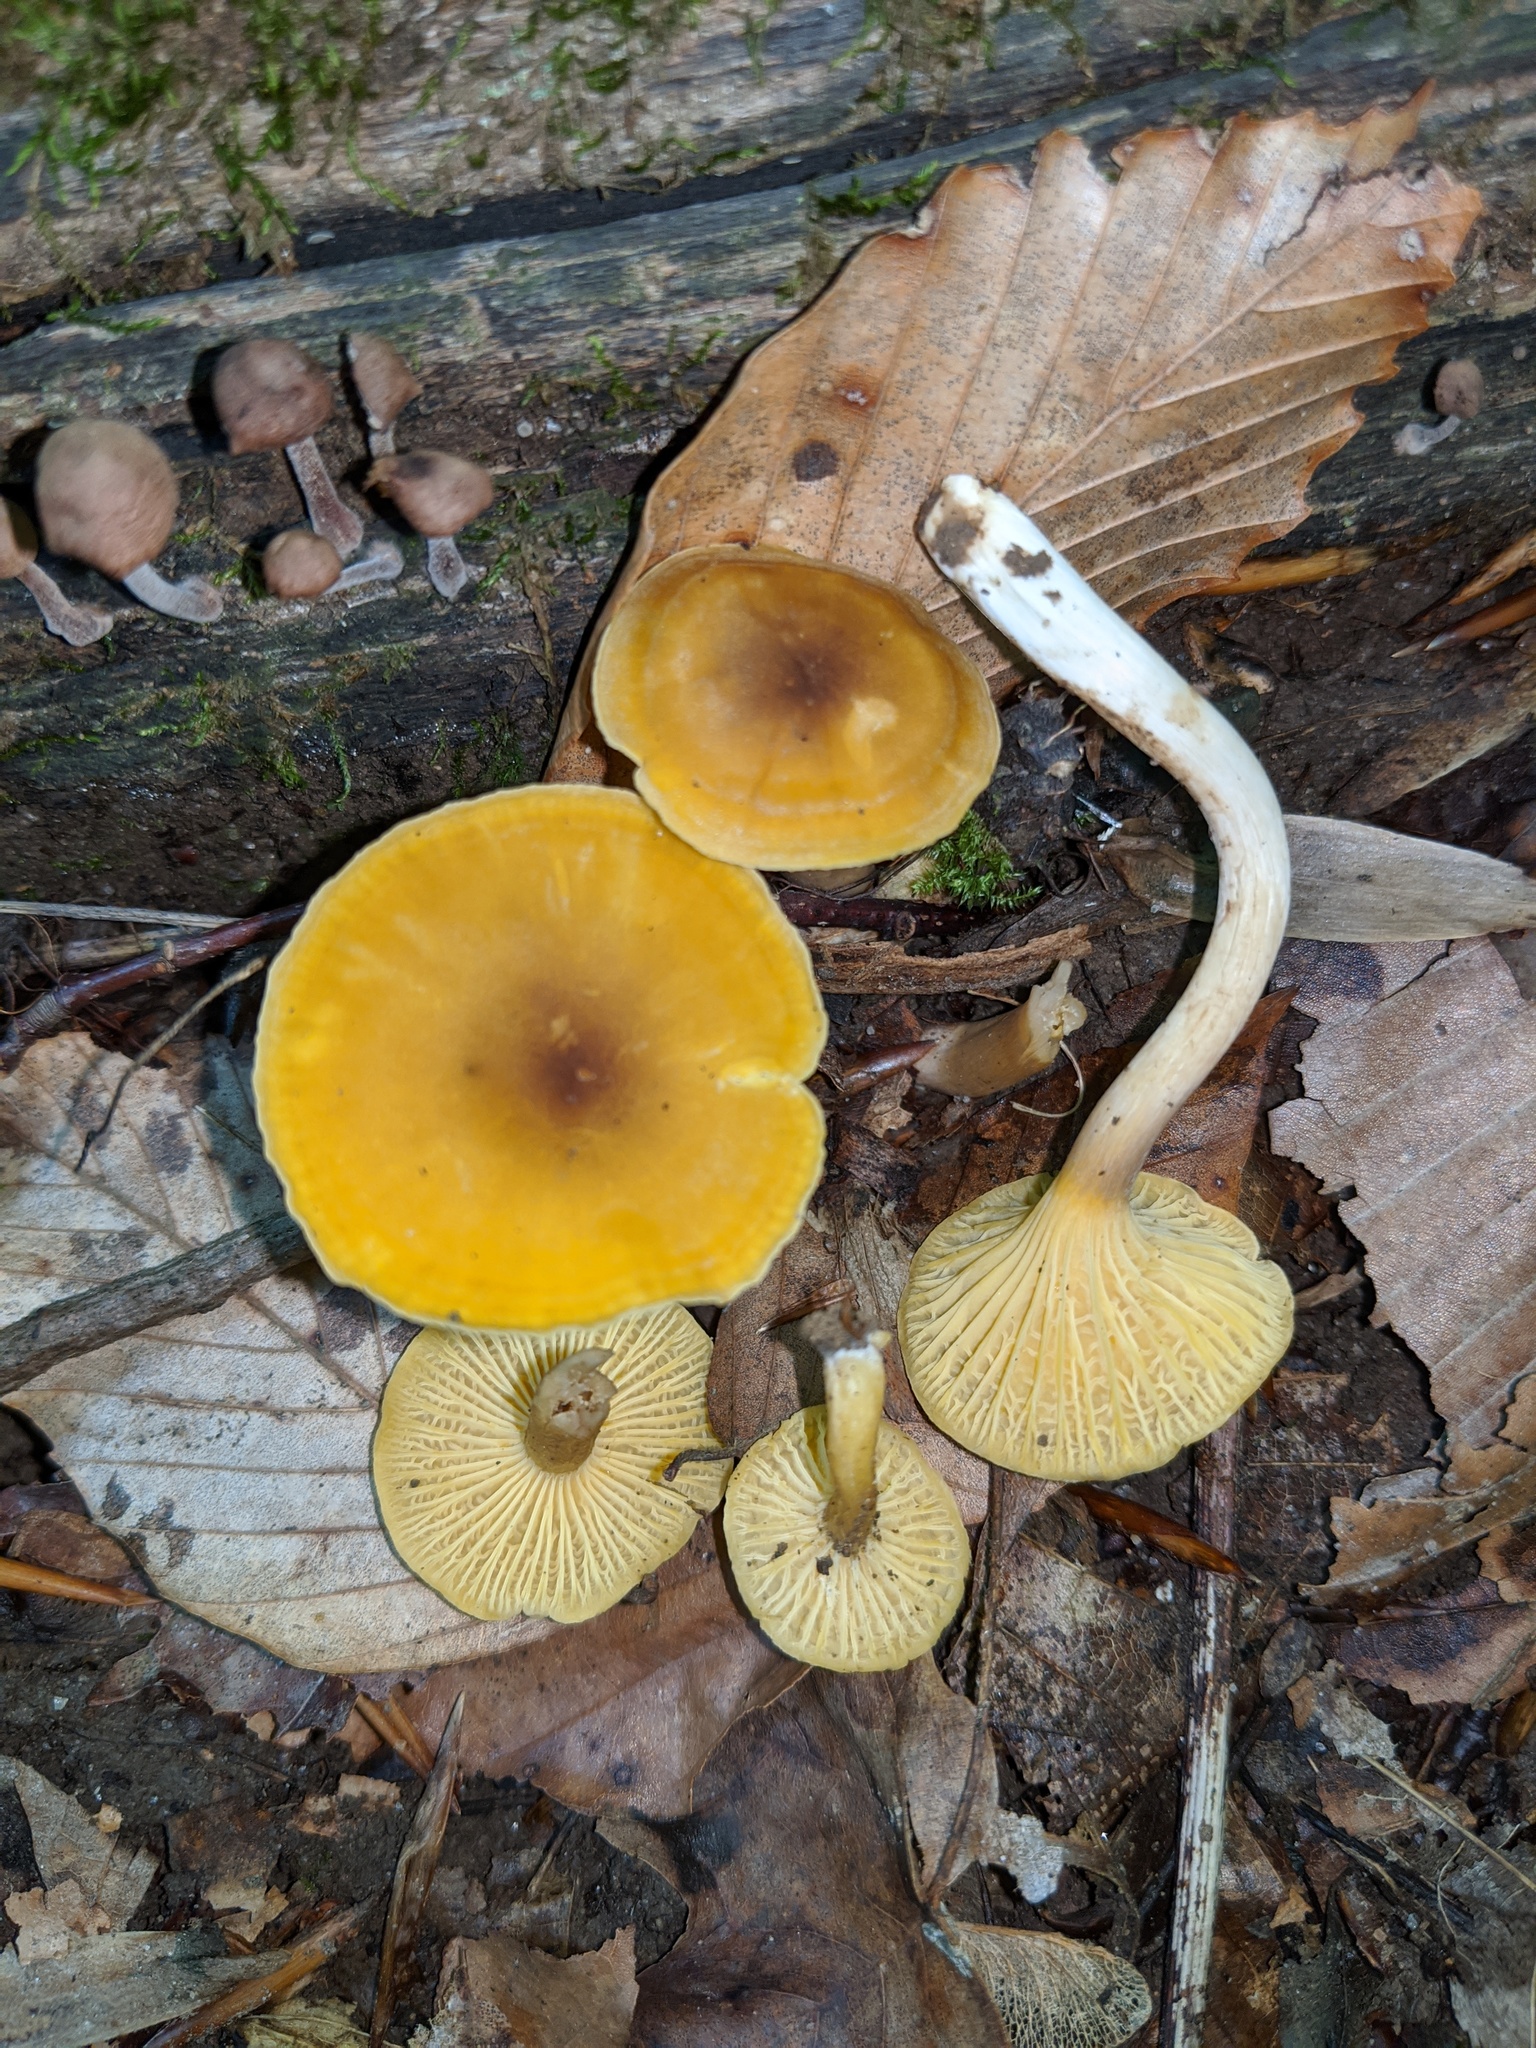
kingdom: Fungi
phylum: Basidiomycota
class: Agaricomycetes
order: Cantharellales
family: Hydnaceae
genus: Cantharellus
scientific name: Cantharellus appalachiensis
